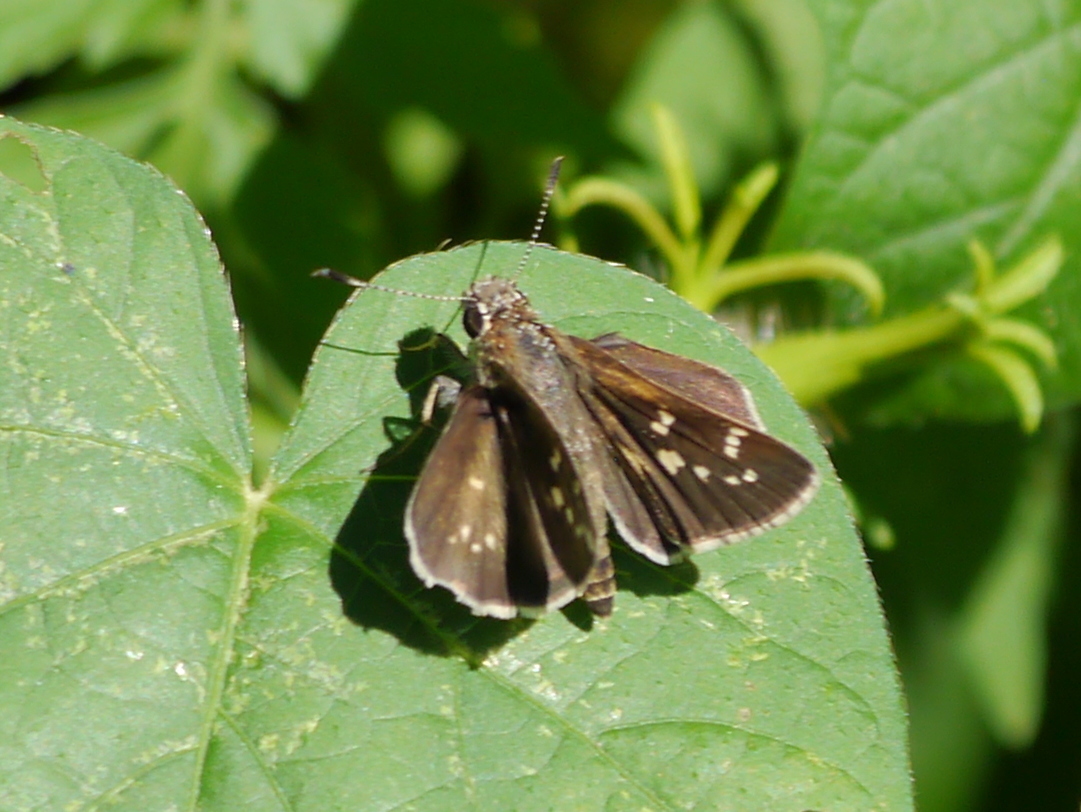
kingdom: Animalia
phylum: Arthropoda
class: Insecta
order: Lepidoptera
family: Hesperiidae
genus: Mastor
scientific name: Mastor tolteca
